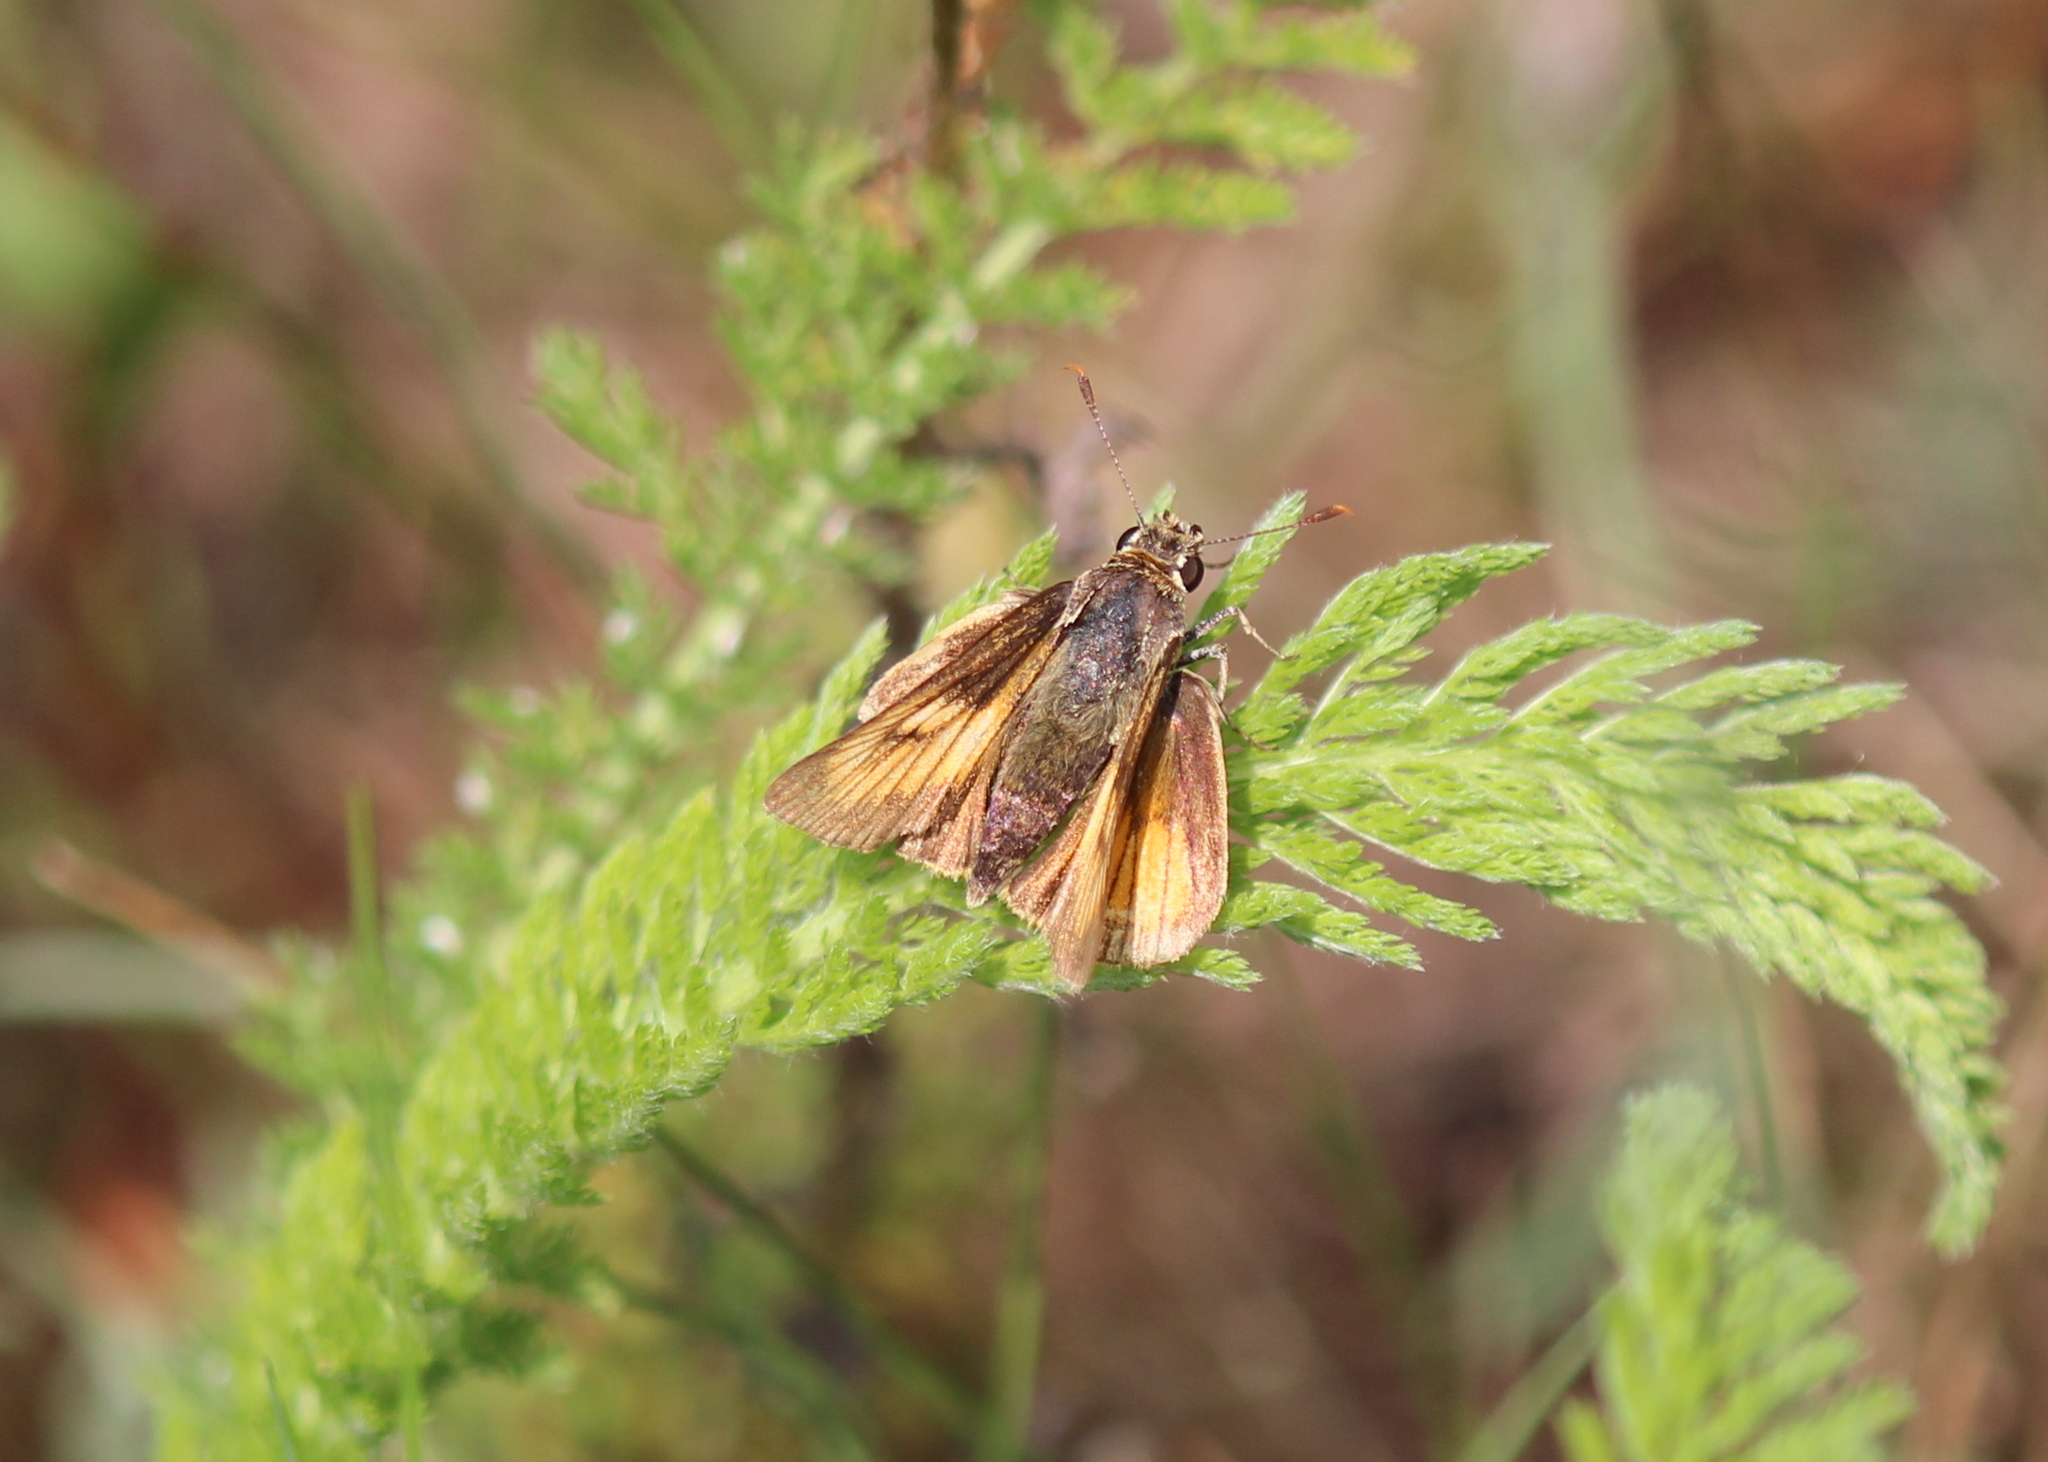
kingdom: Animalia
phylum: Arthropoda
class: Insecta
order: Lepidoptera
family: Hesperiidae
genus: Atrytone
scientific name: Atrytone delaware
